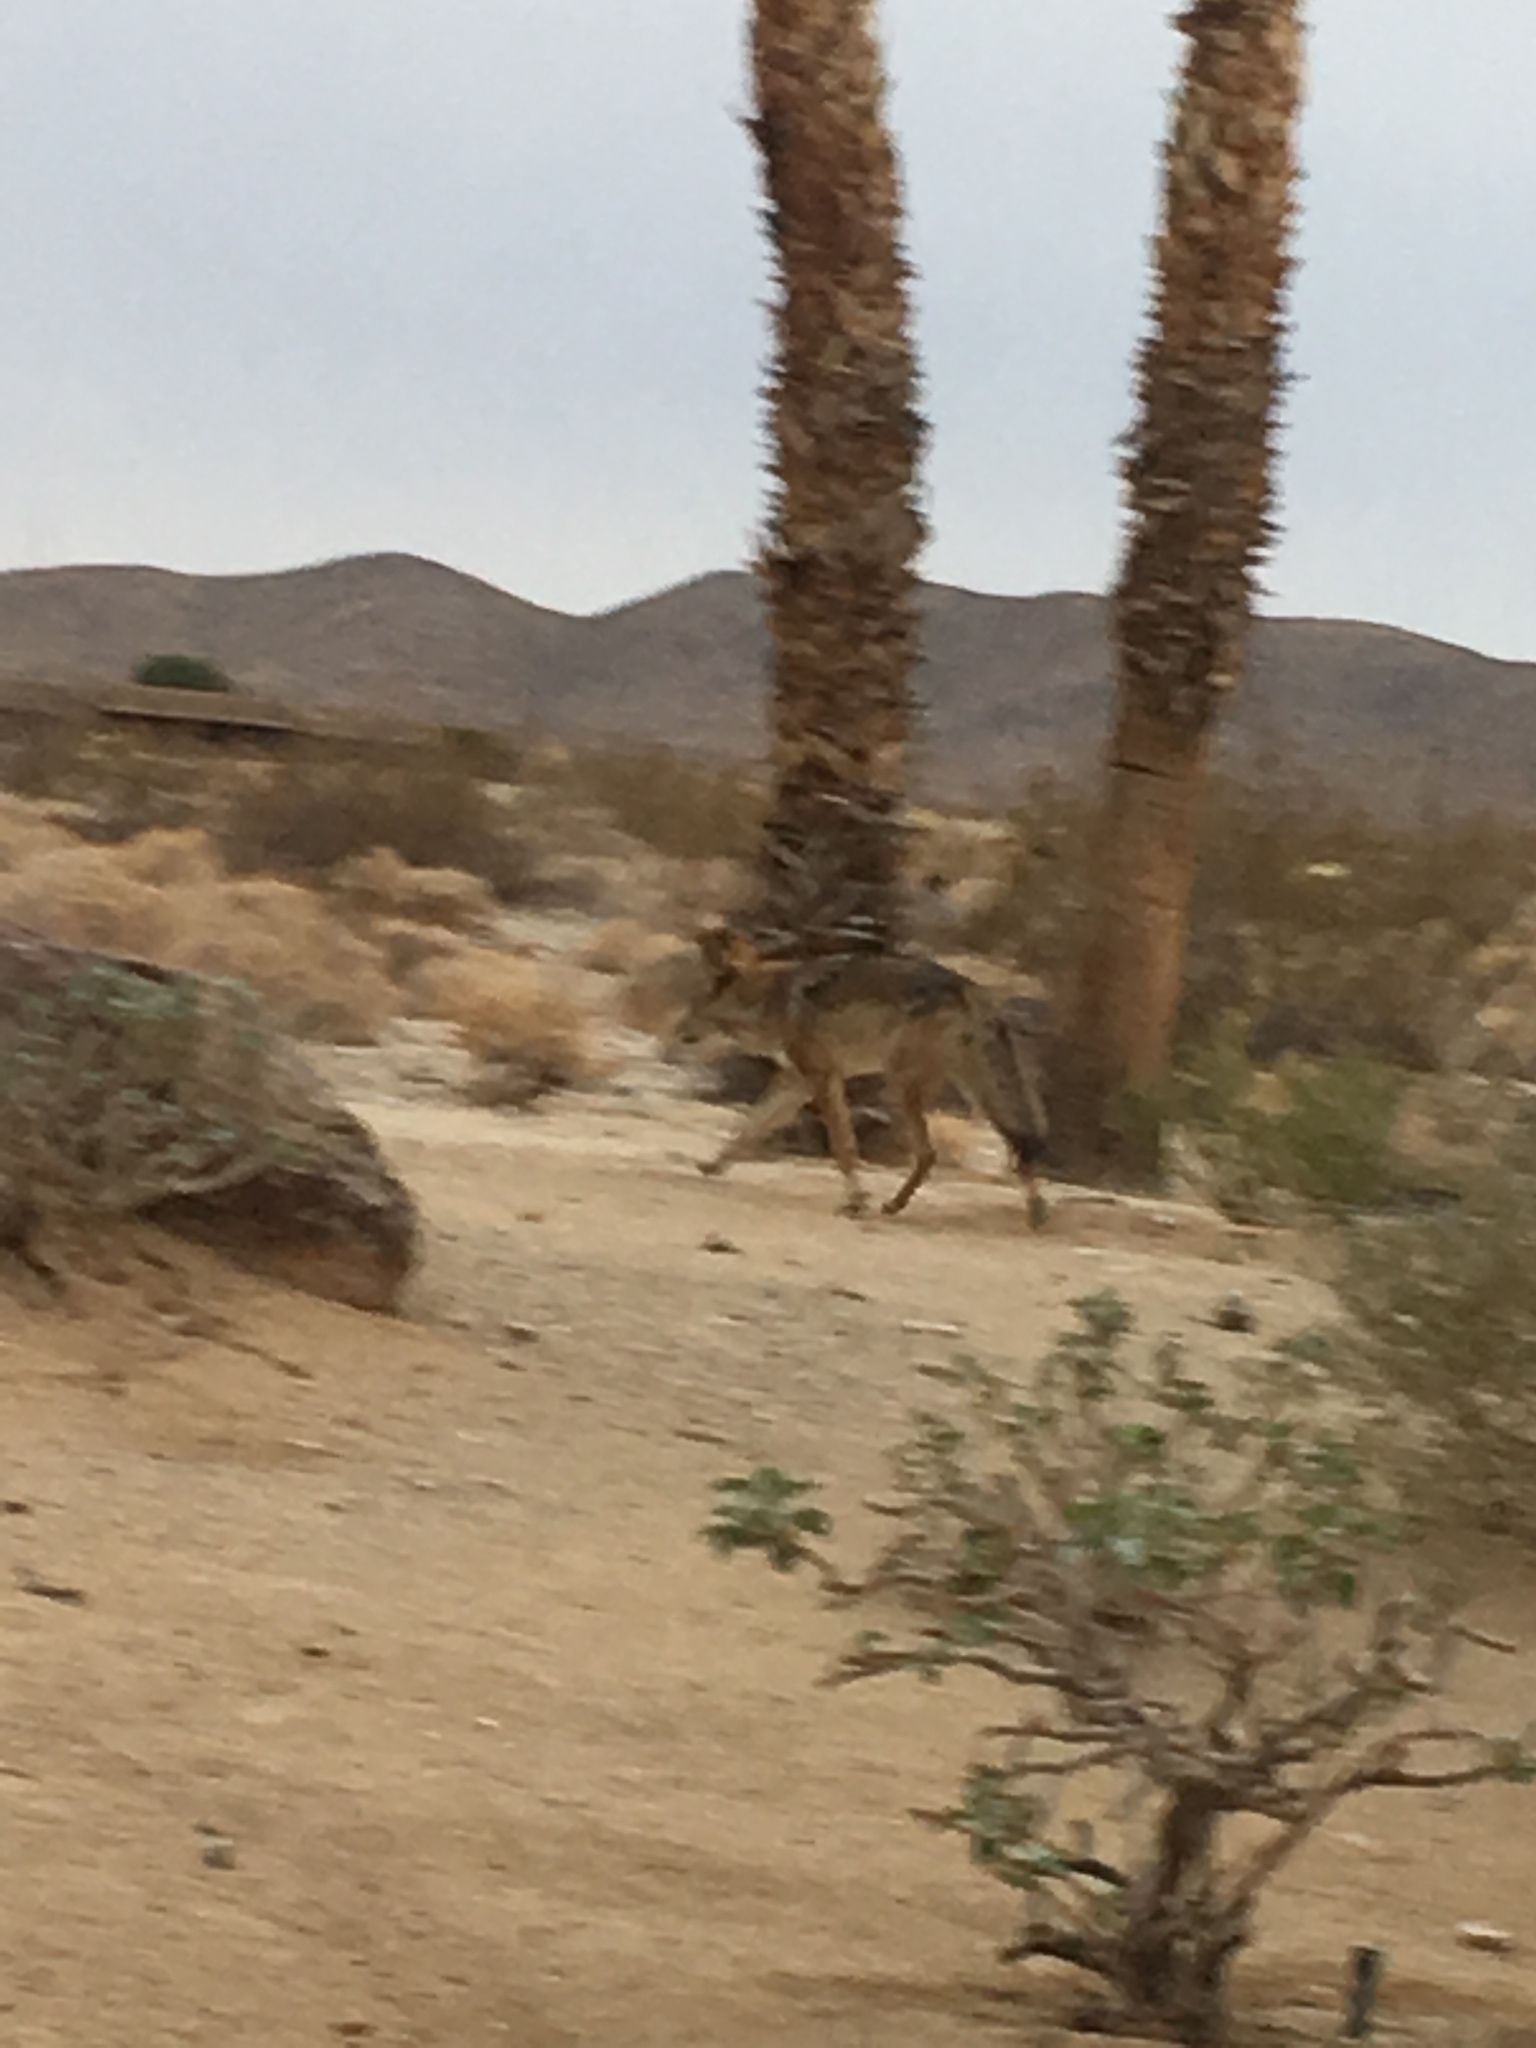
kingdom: Animalia
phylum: Chordata
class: Mammalia
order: Carnivora
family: Canidae
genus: Canis
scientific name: Canis latrans
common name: Coyote
